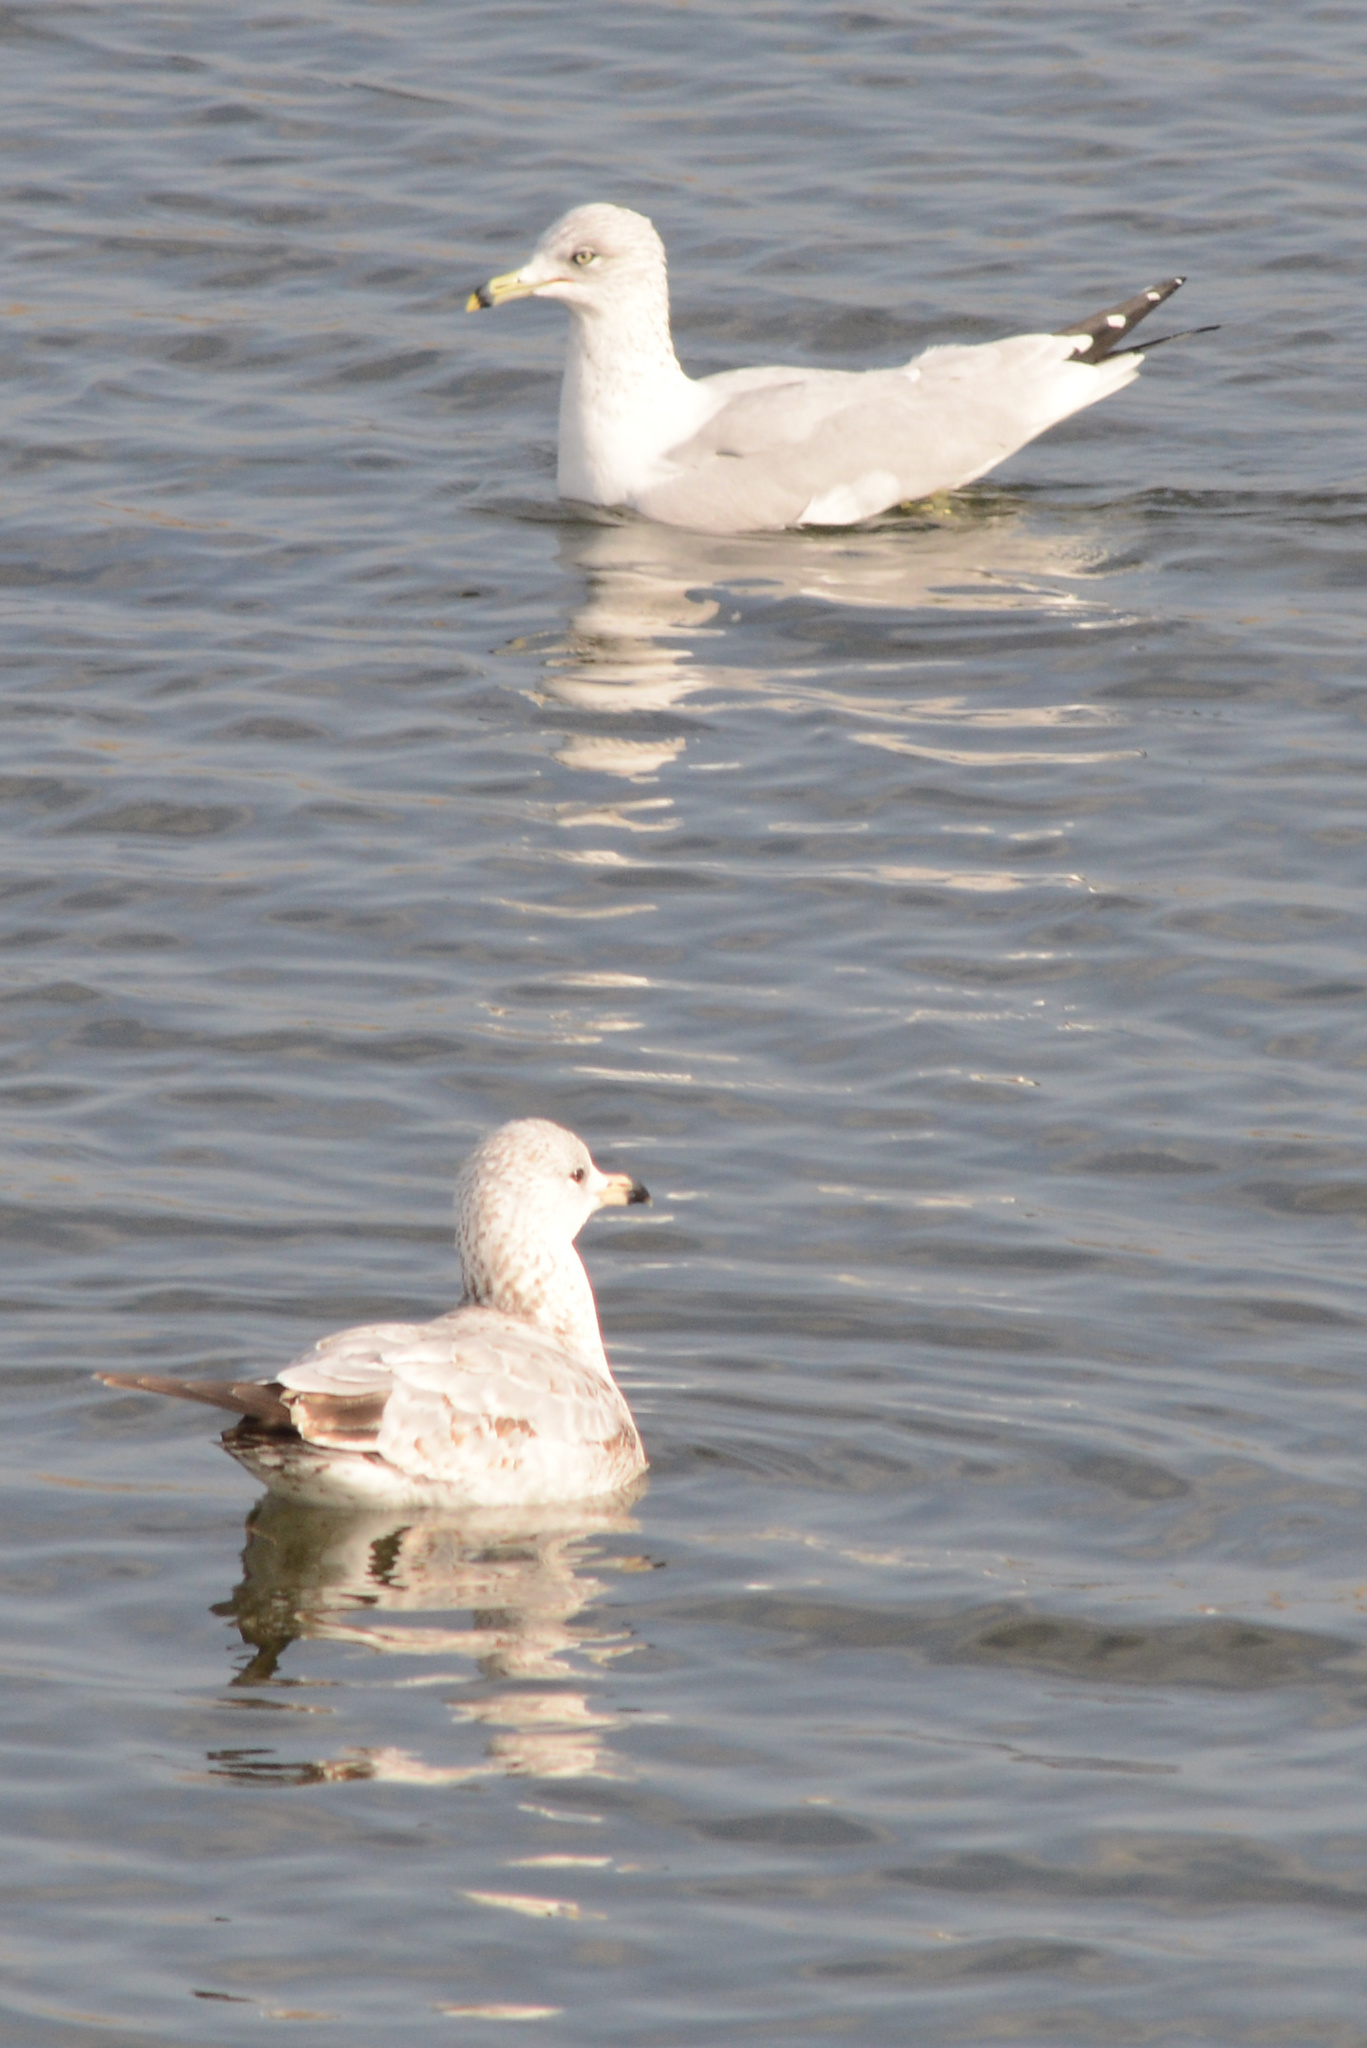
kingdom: Animalia
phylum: Chordata
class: Aves
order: Charadriiformes
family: Laridae
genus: Larus
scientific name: Larus delawarensis
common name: Ring-billed gull
